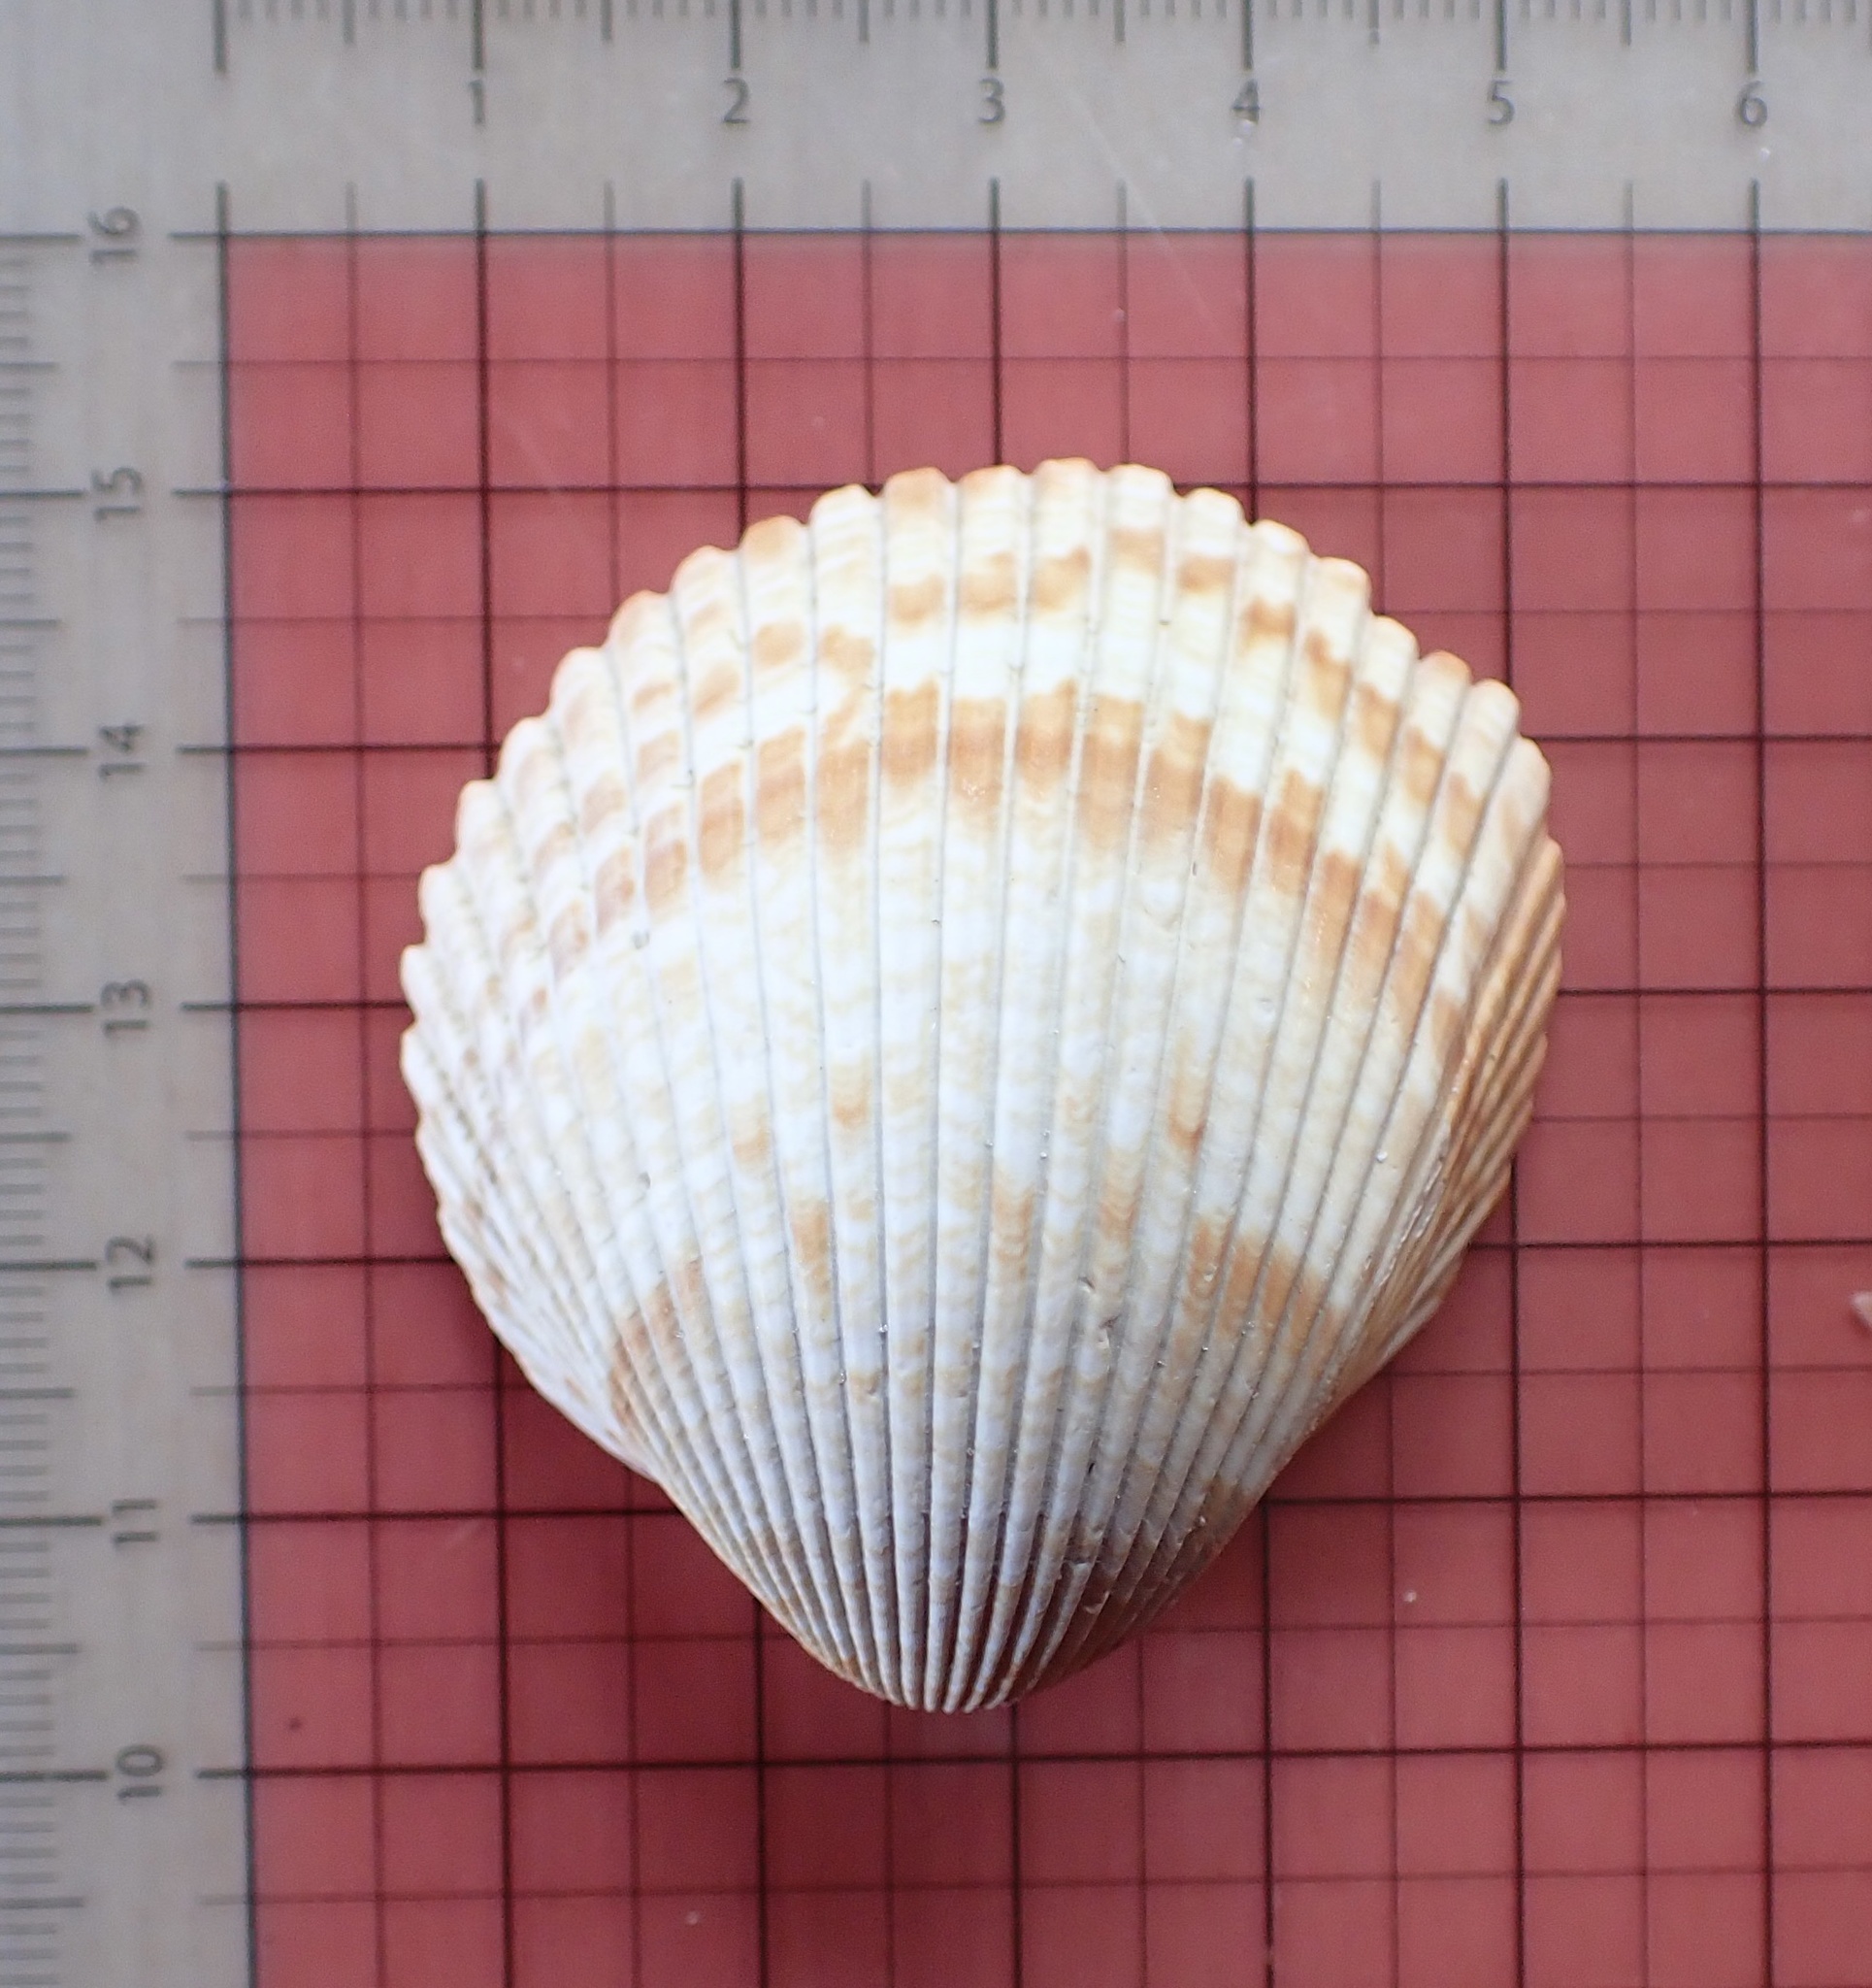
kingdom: Animalia
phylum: Mollusca
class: Bivalvia
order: Cardiida
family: Cardiidae
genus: Dinocardium
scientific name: Dinocardium robustum
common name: Atlantic giant cockle
